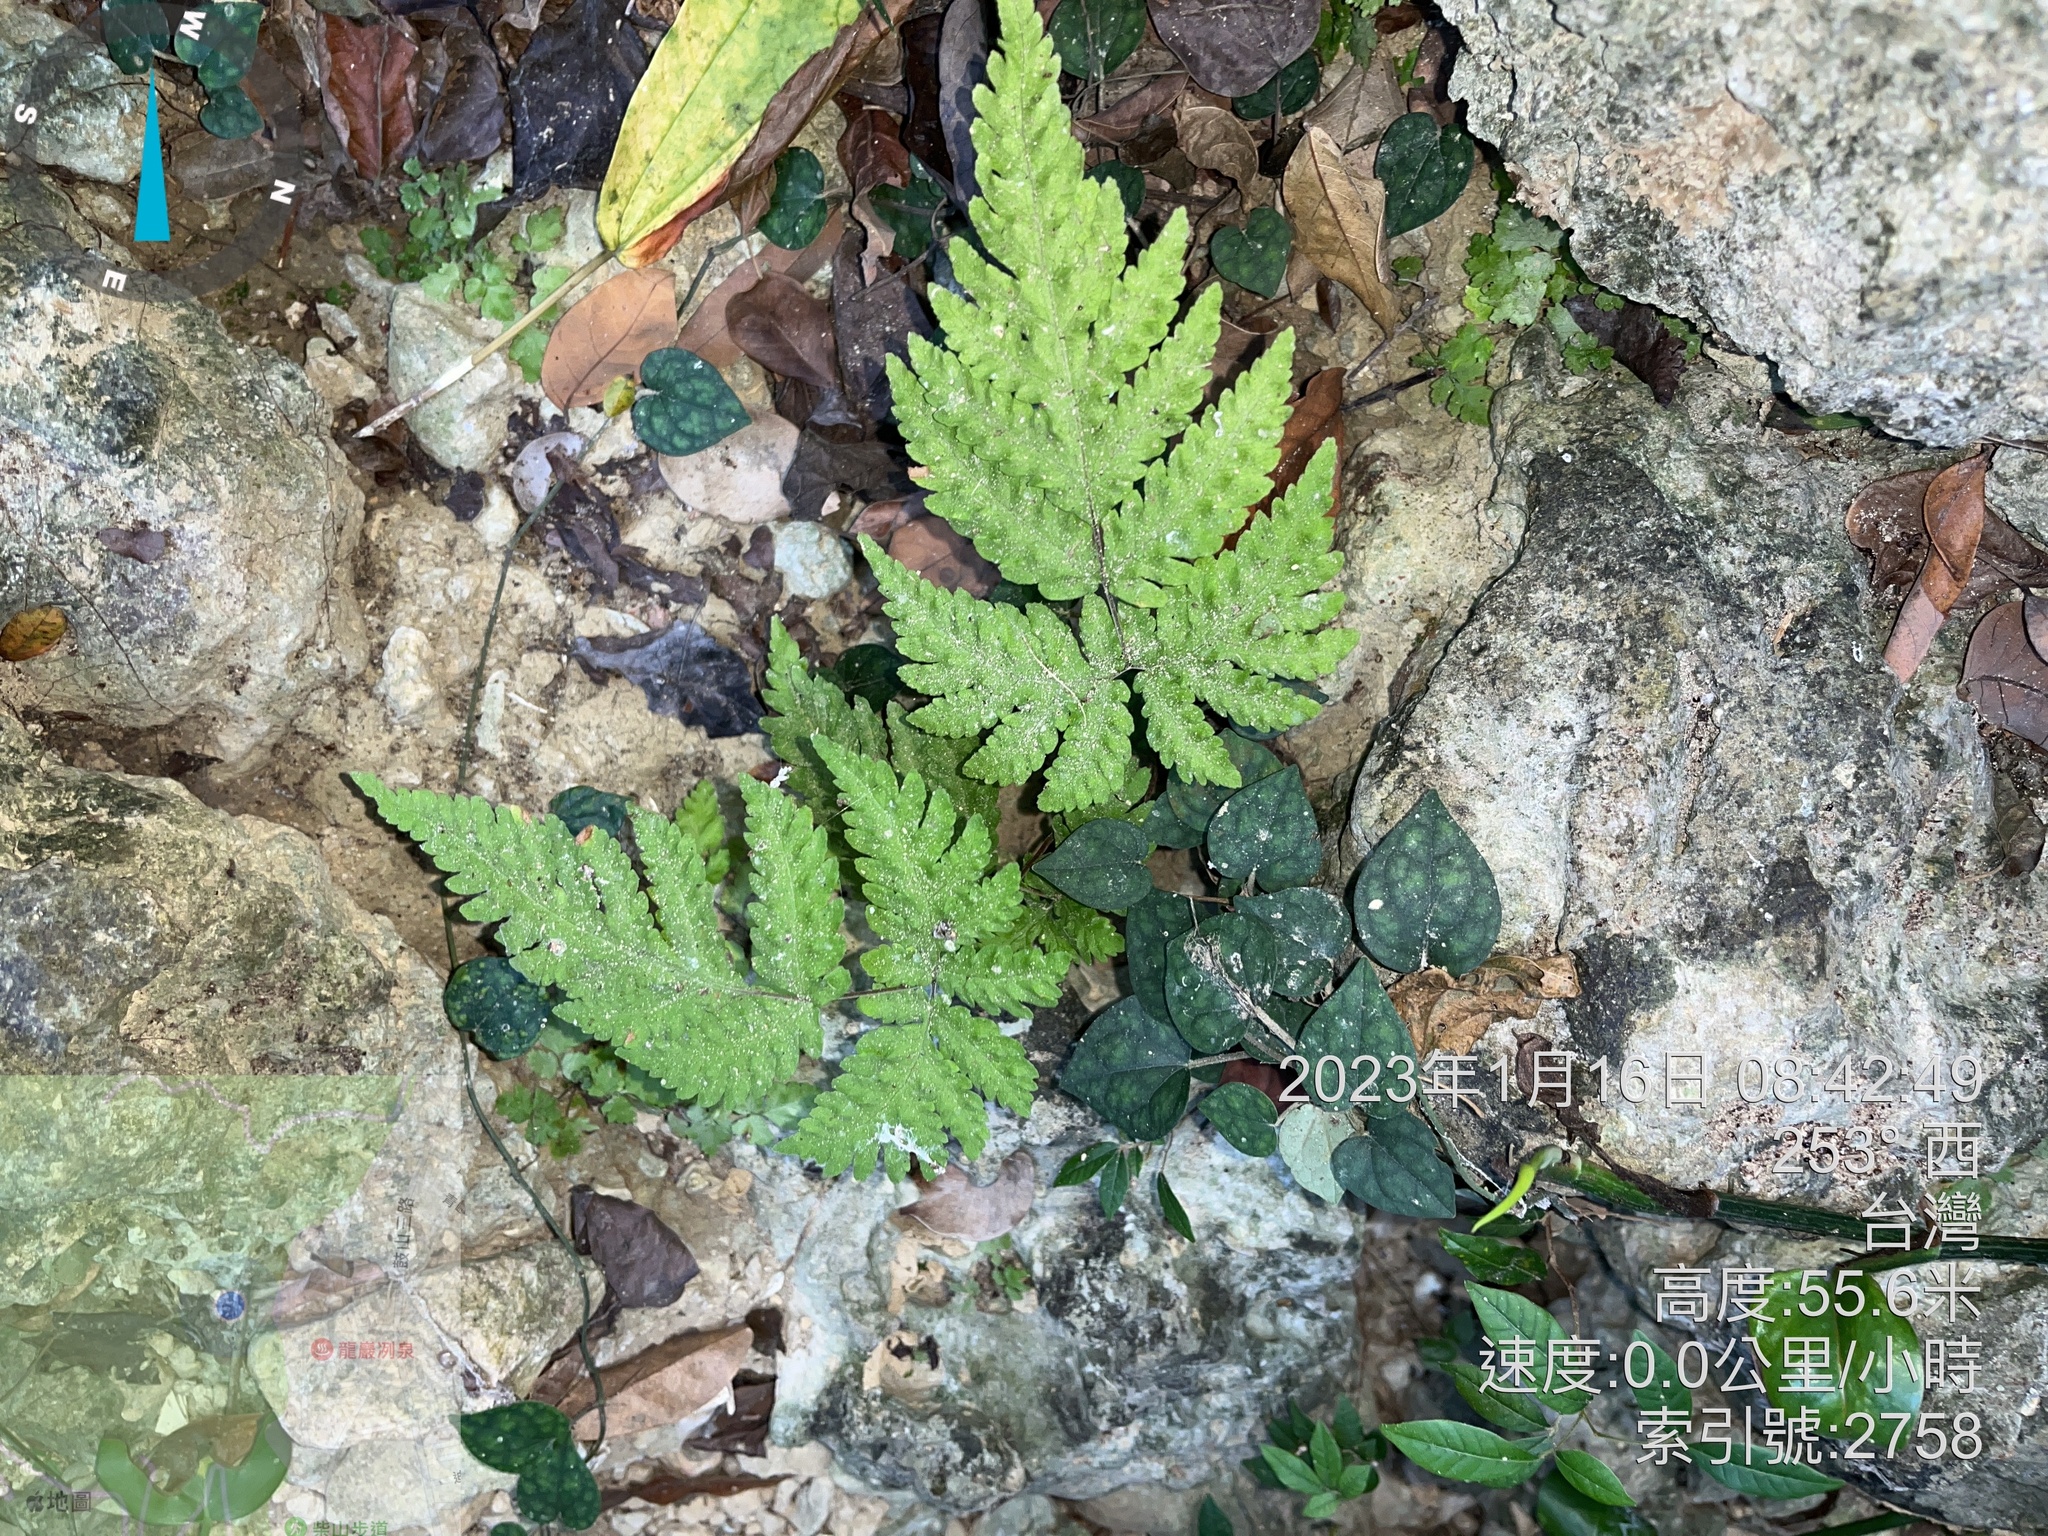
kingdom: Plantae
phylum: Tracheophyta
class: Polypodiopsida
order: Polypodiales
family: Tectariaceae
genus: Tectaria
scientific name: Tectaria membranacea
